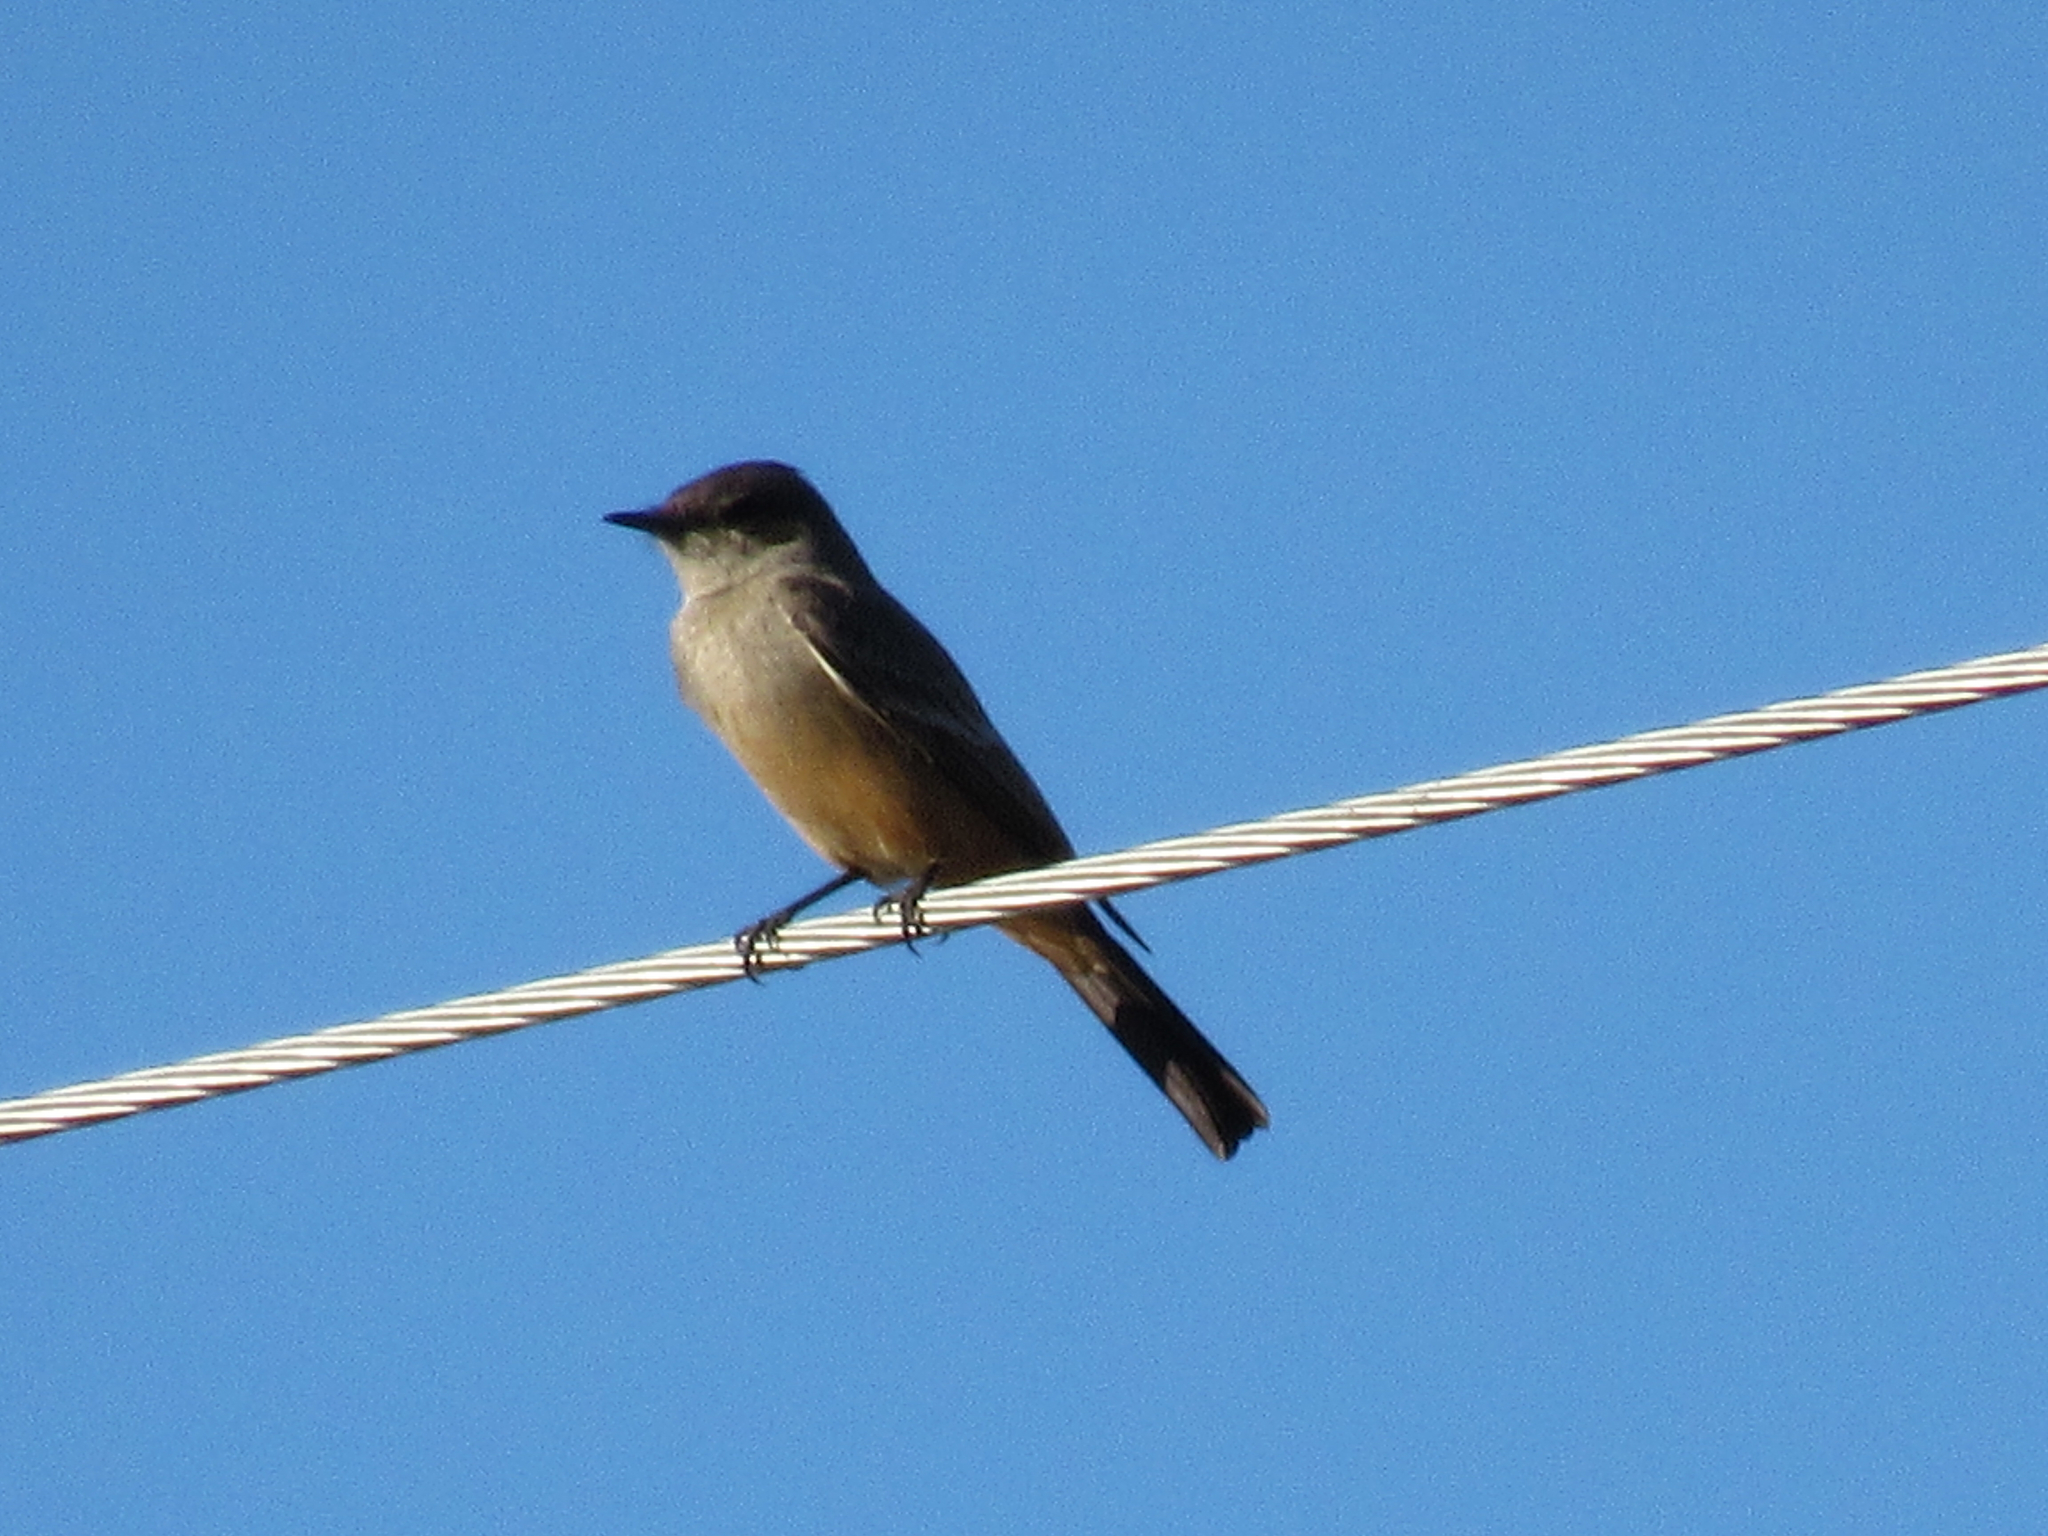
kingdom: Animalia
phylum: Chordata
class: Aves
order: Passeriformes
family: Tyrannidae
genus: Sayornis
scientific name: Sayornis saya
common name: Say's phoebe
